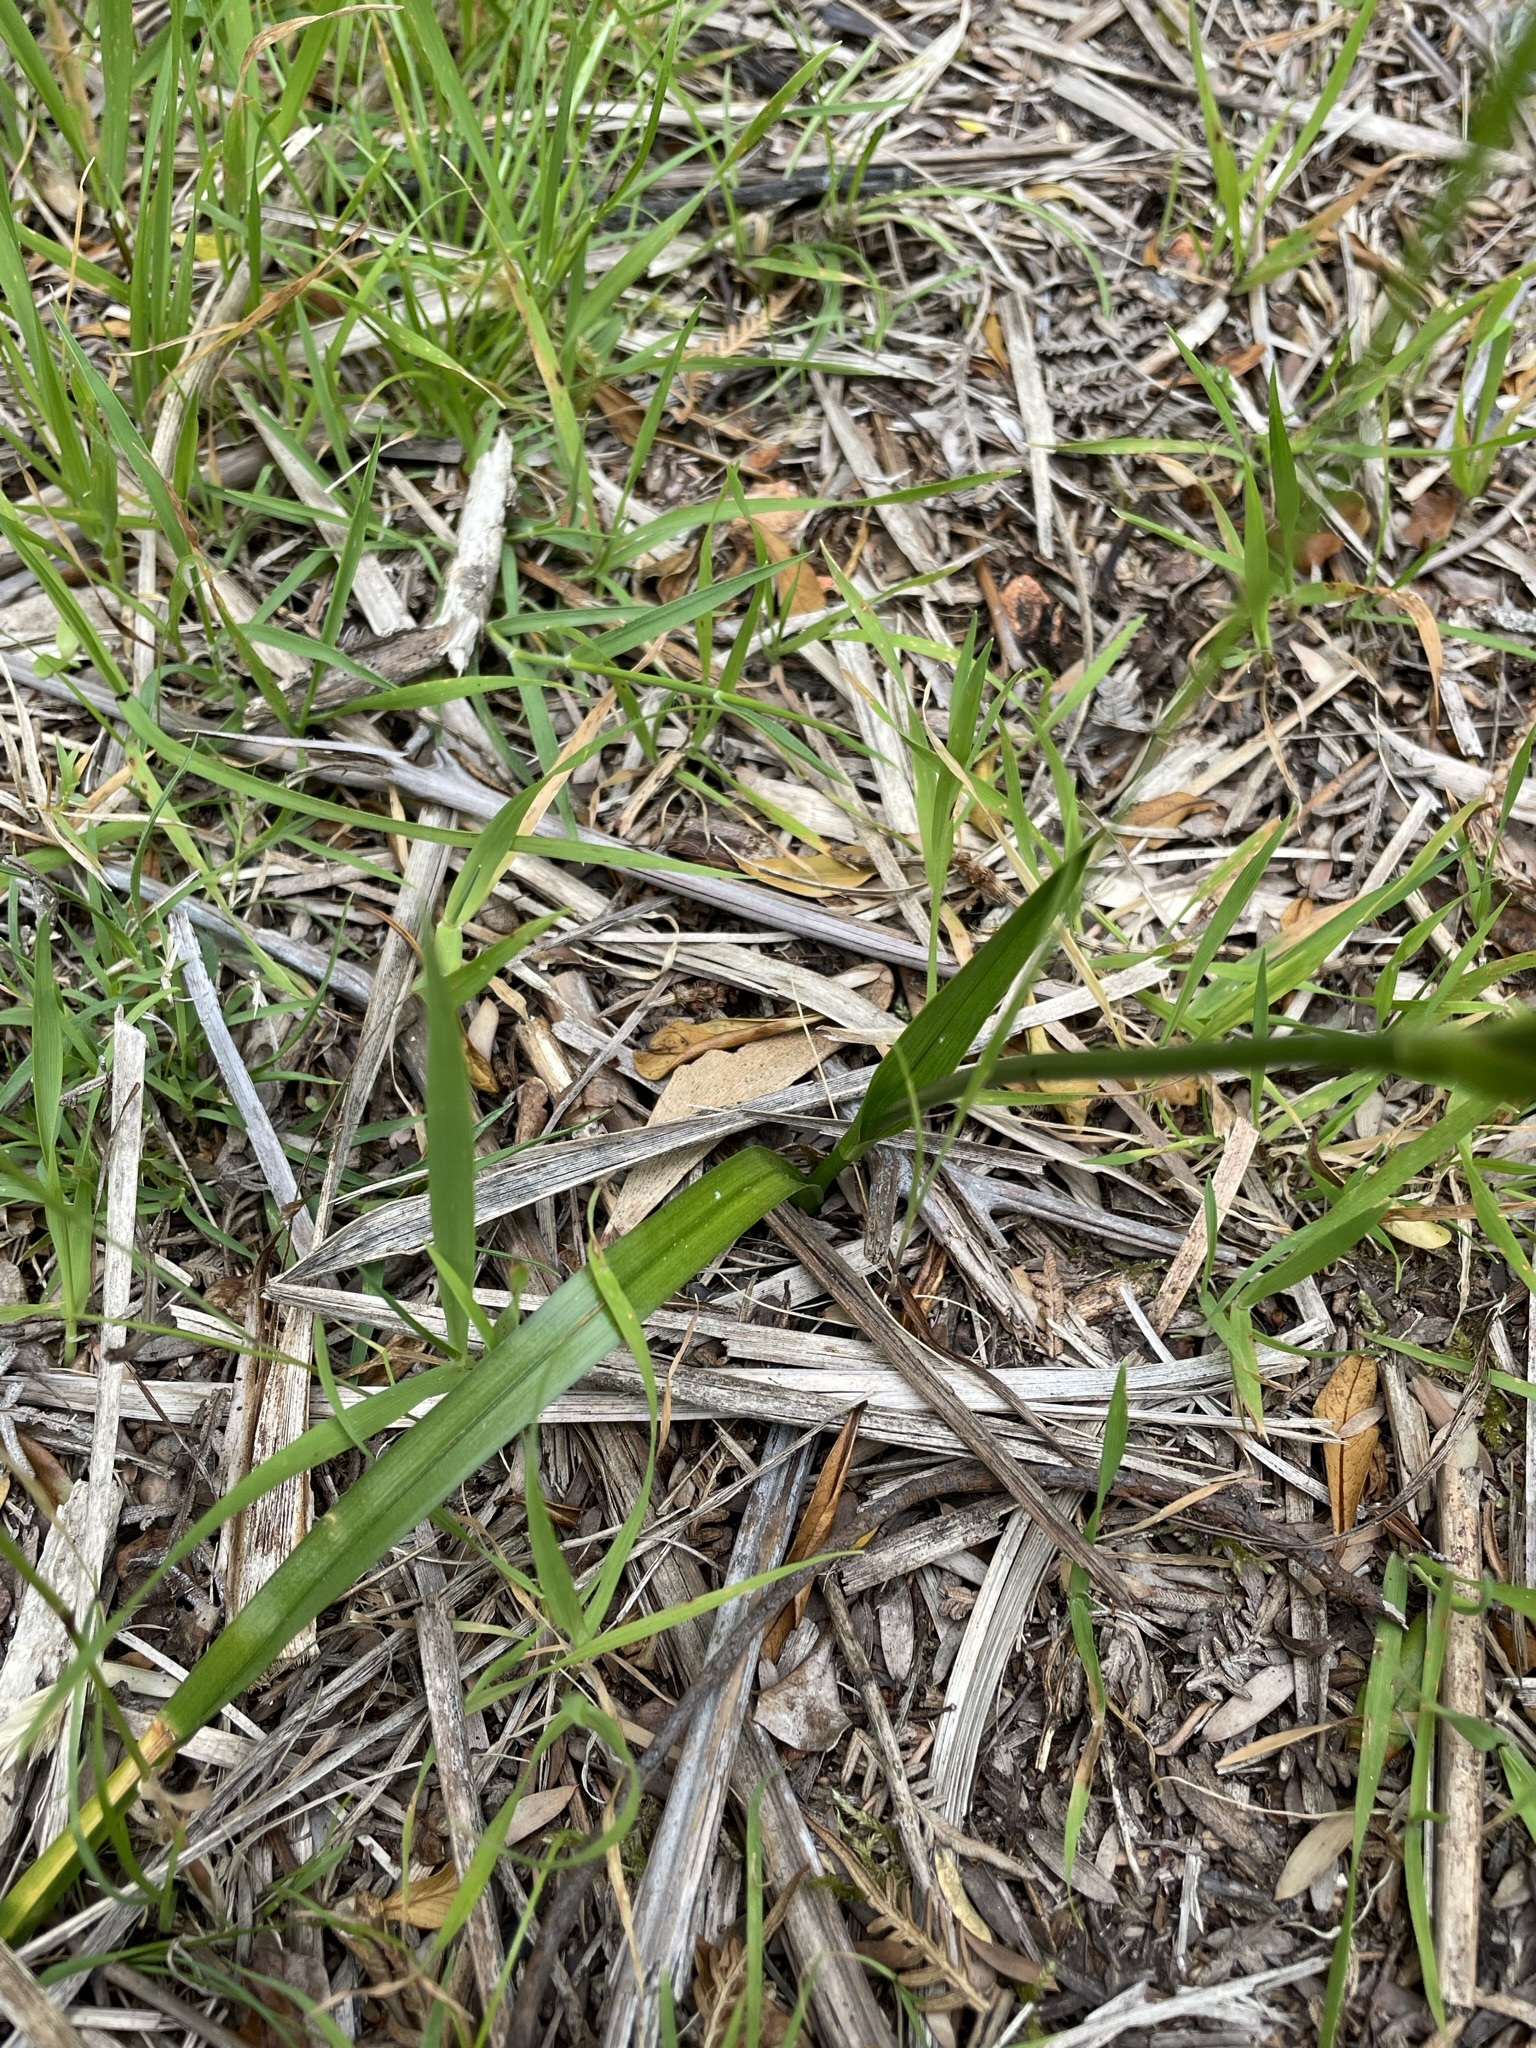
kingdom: Plantae
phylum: Tracheophyta
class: Liliopsida
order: Liliales
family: Colchicaceae
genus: Burchardia
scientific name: Burchardia umbellata
